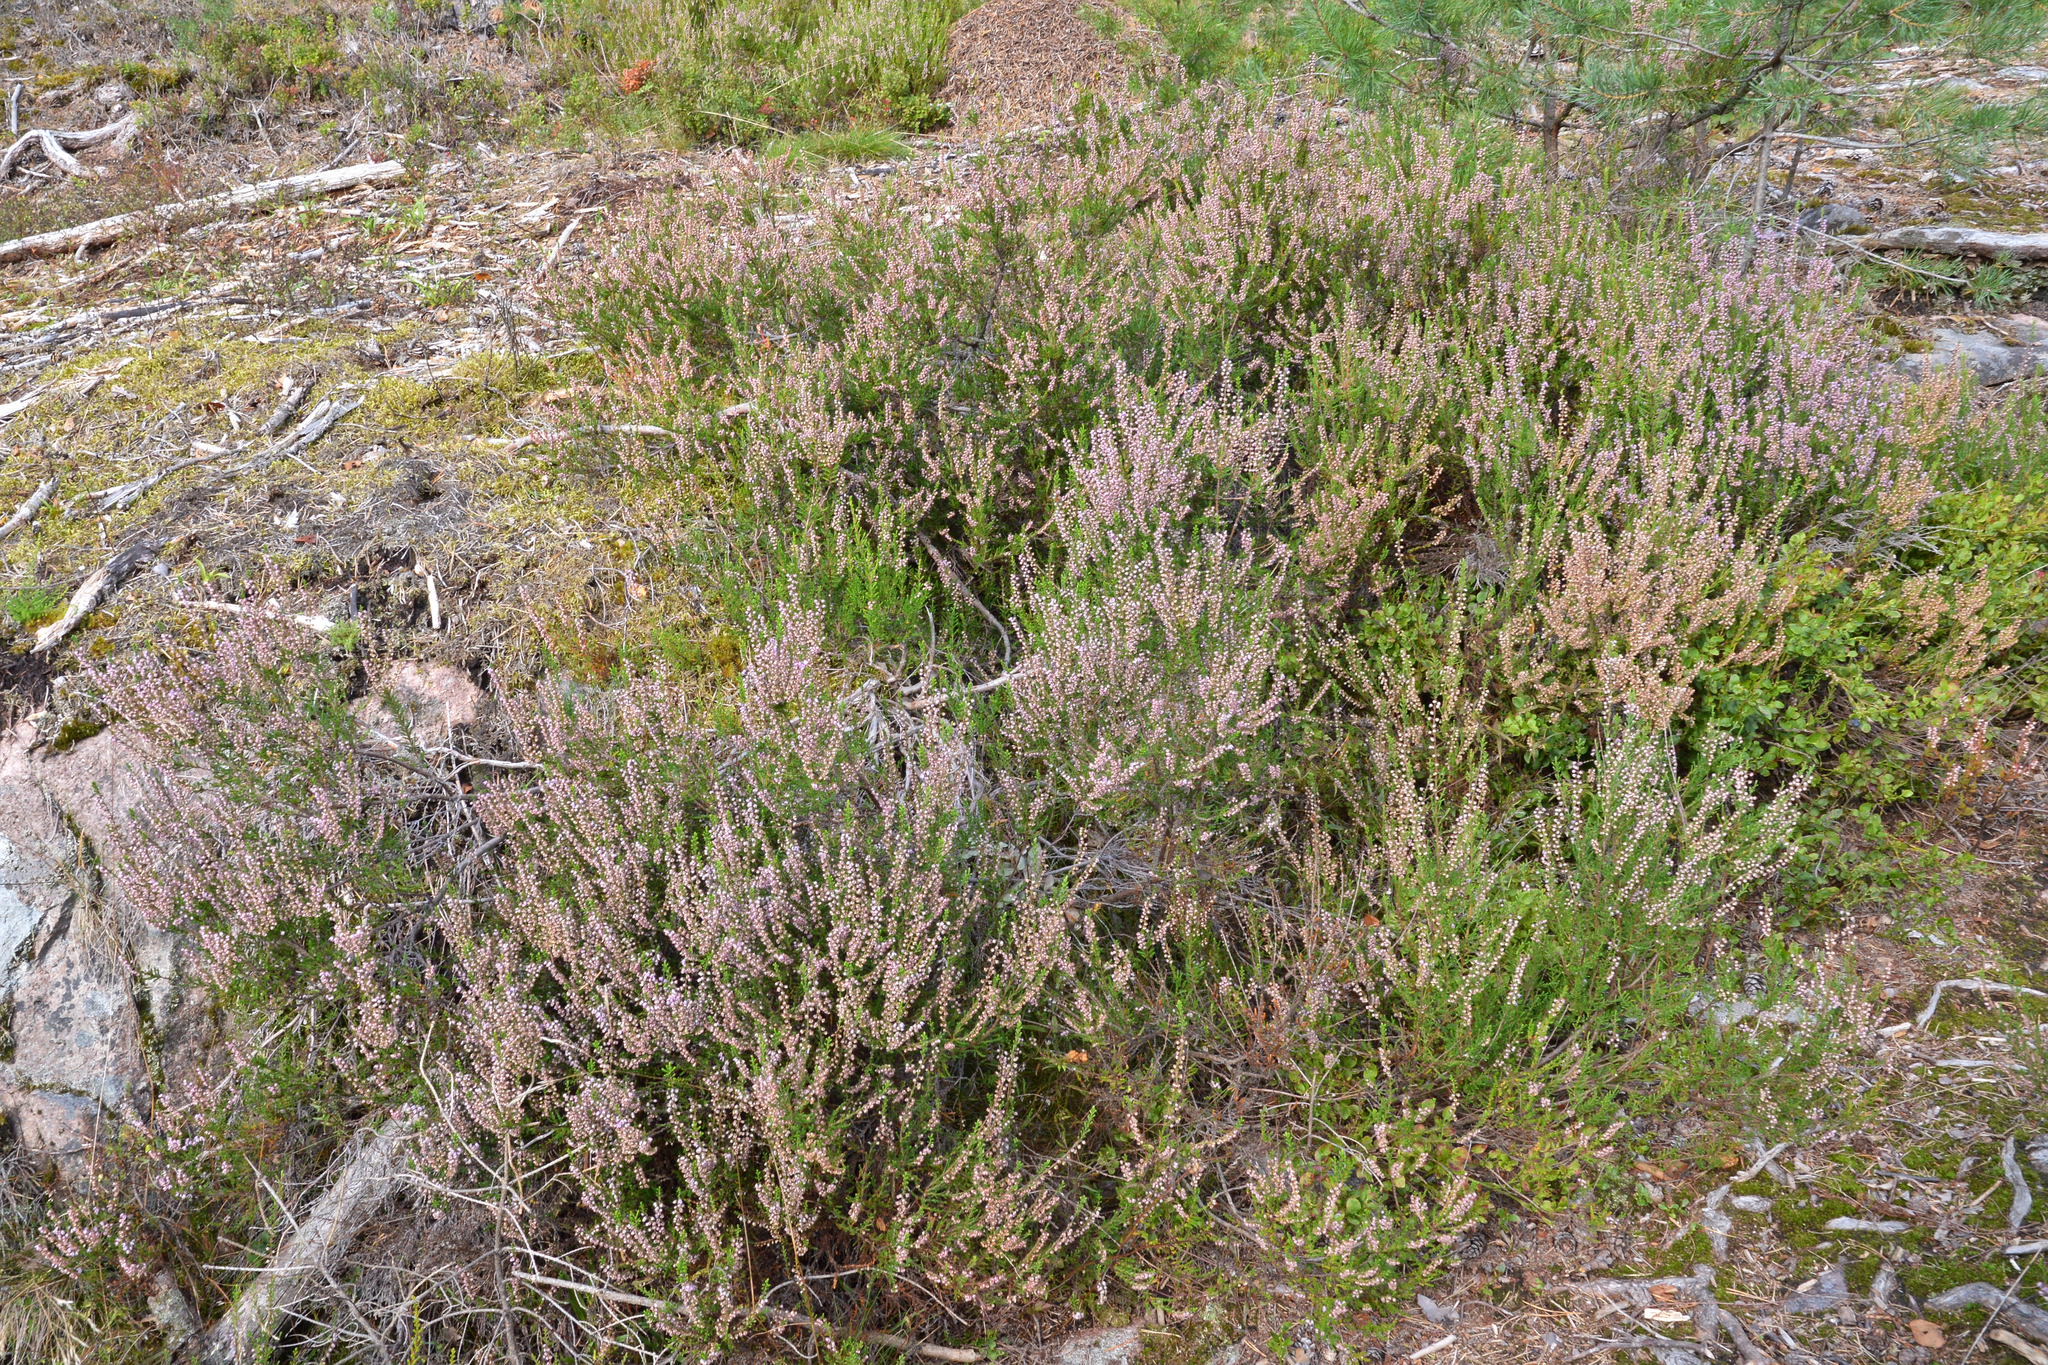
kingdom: Plantae
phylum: Tracheophyta
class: Magnoliopsida
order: Ericales
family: Ericaceae
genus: Calluna
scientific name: Calluna vulgaris
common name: Heather
